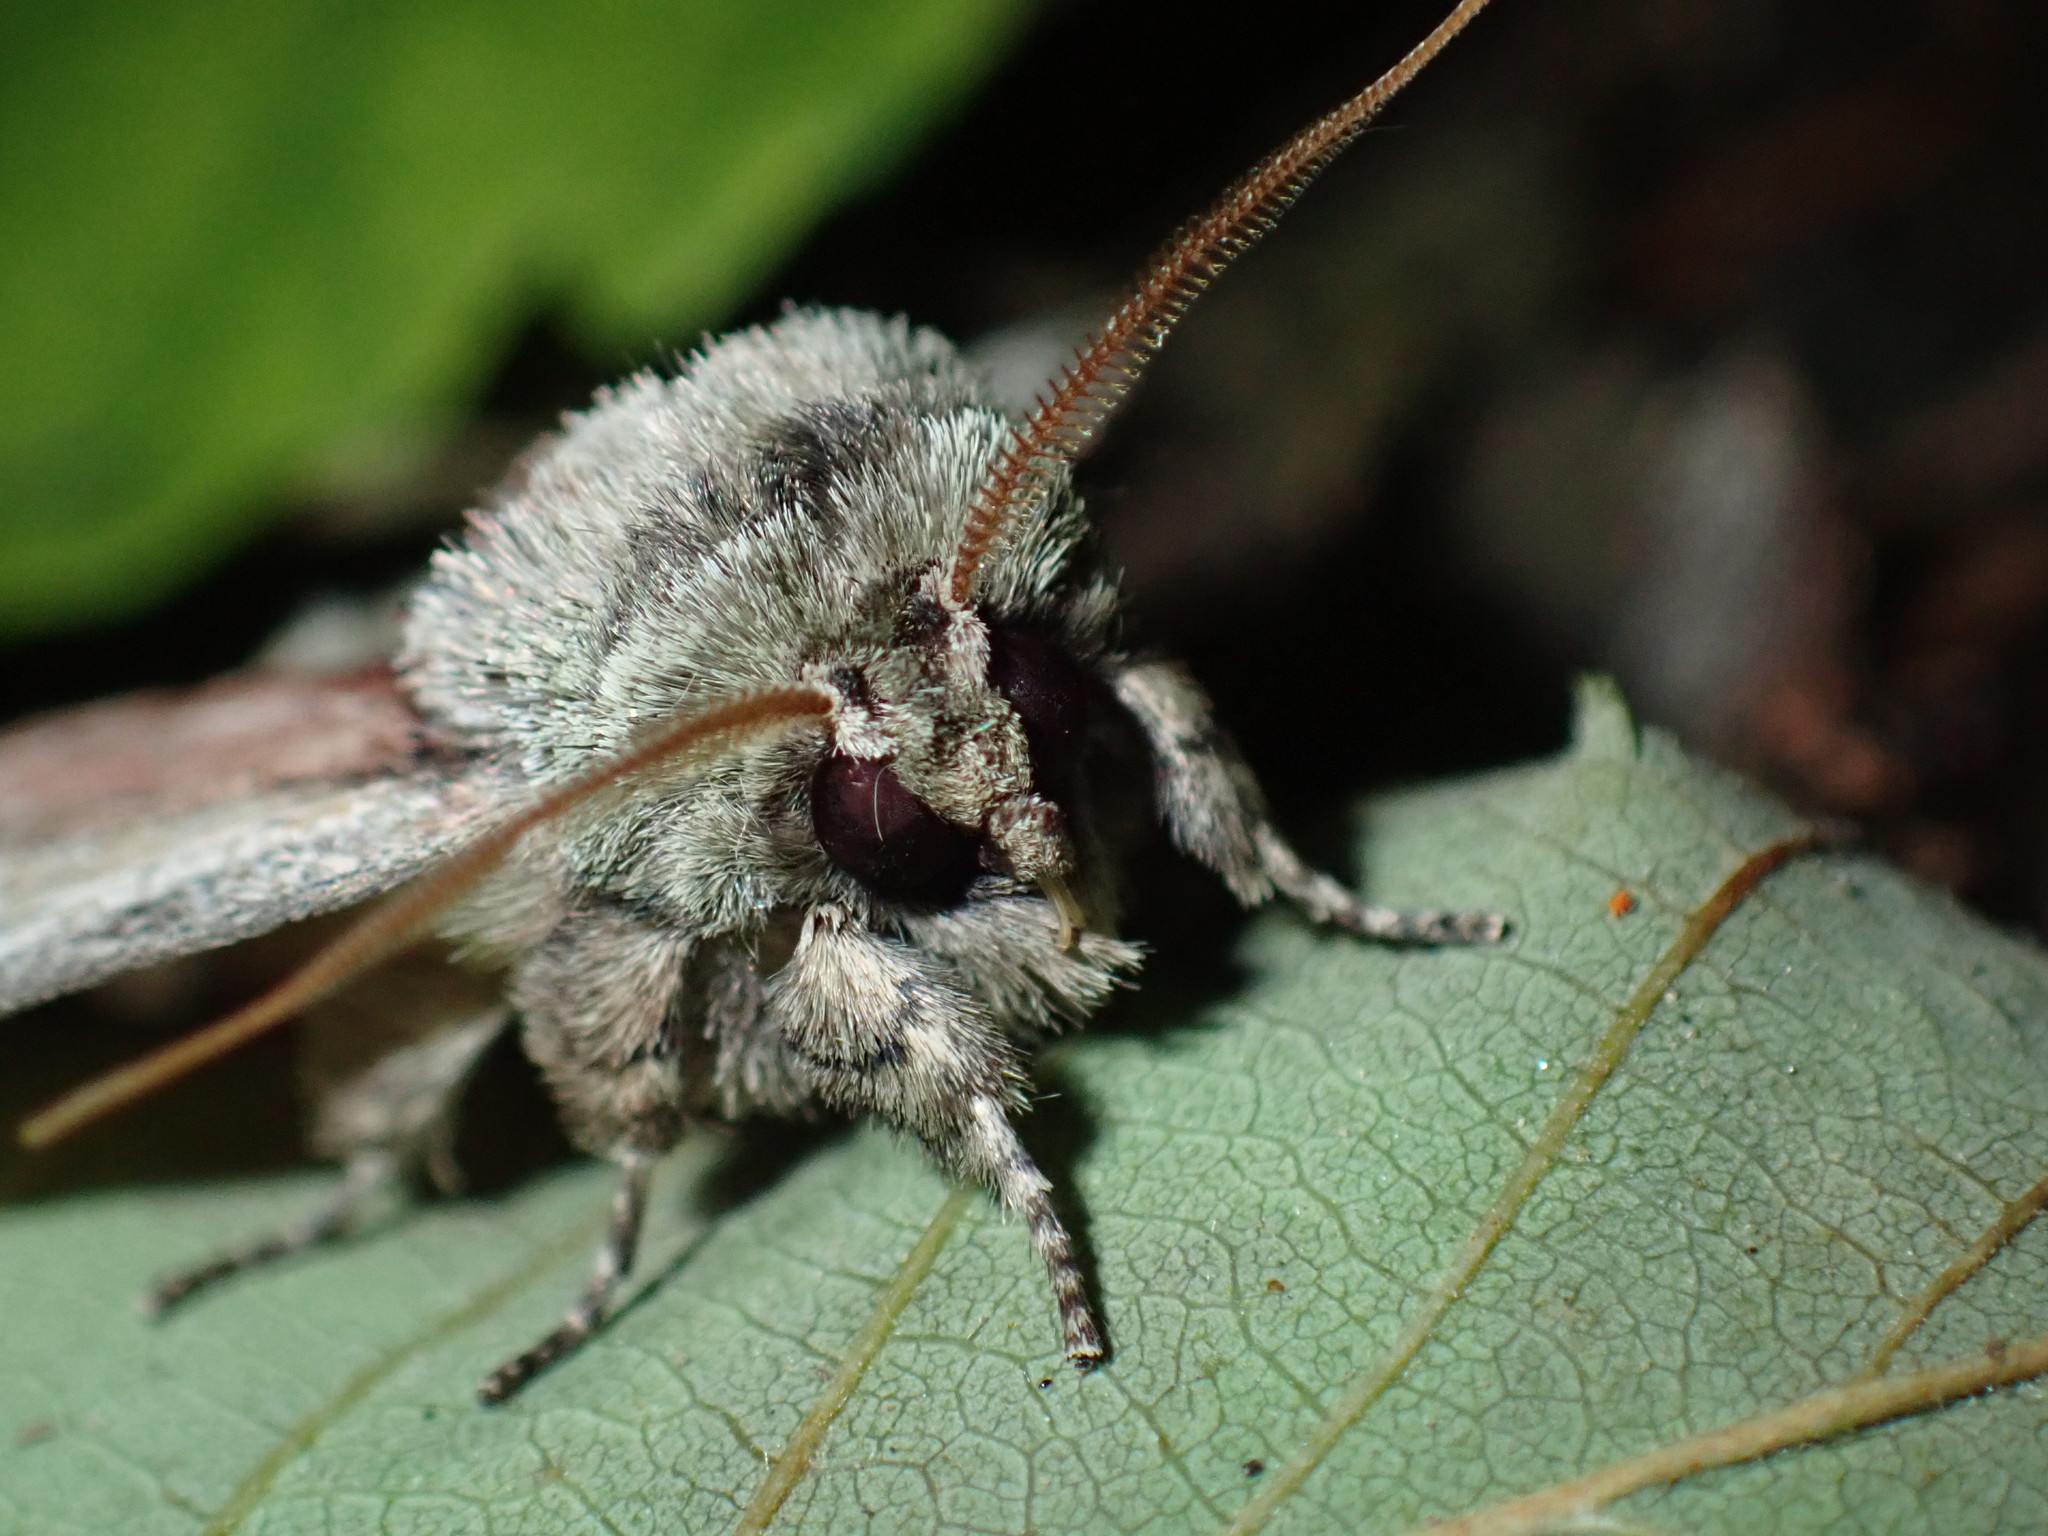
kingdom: Animalia
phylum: Arthropoda
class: Insecta
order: Lepidoptera
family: Notodontidae
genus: Schizura
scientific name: Schizura
